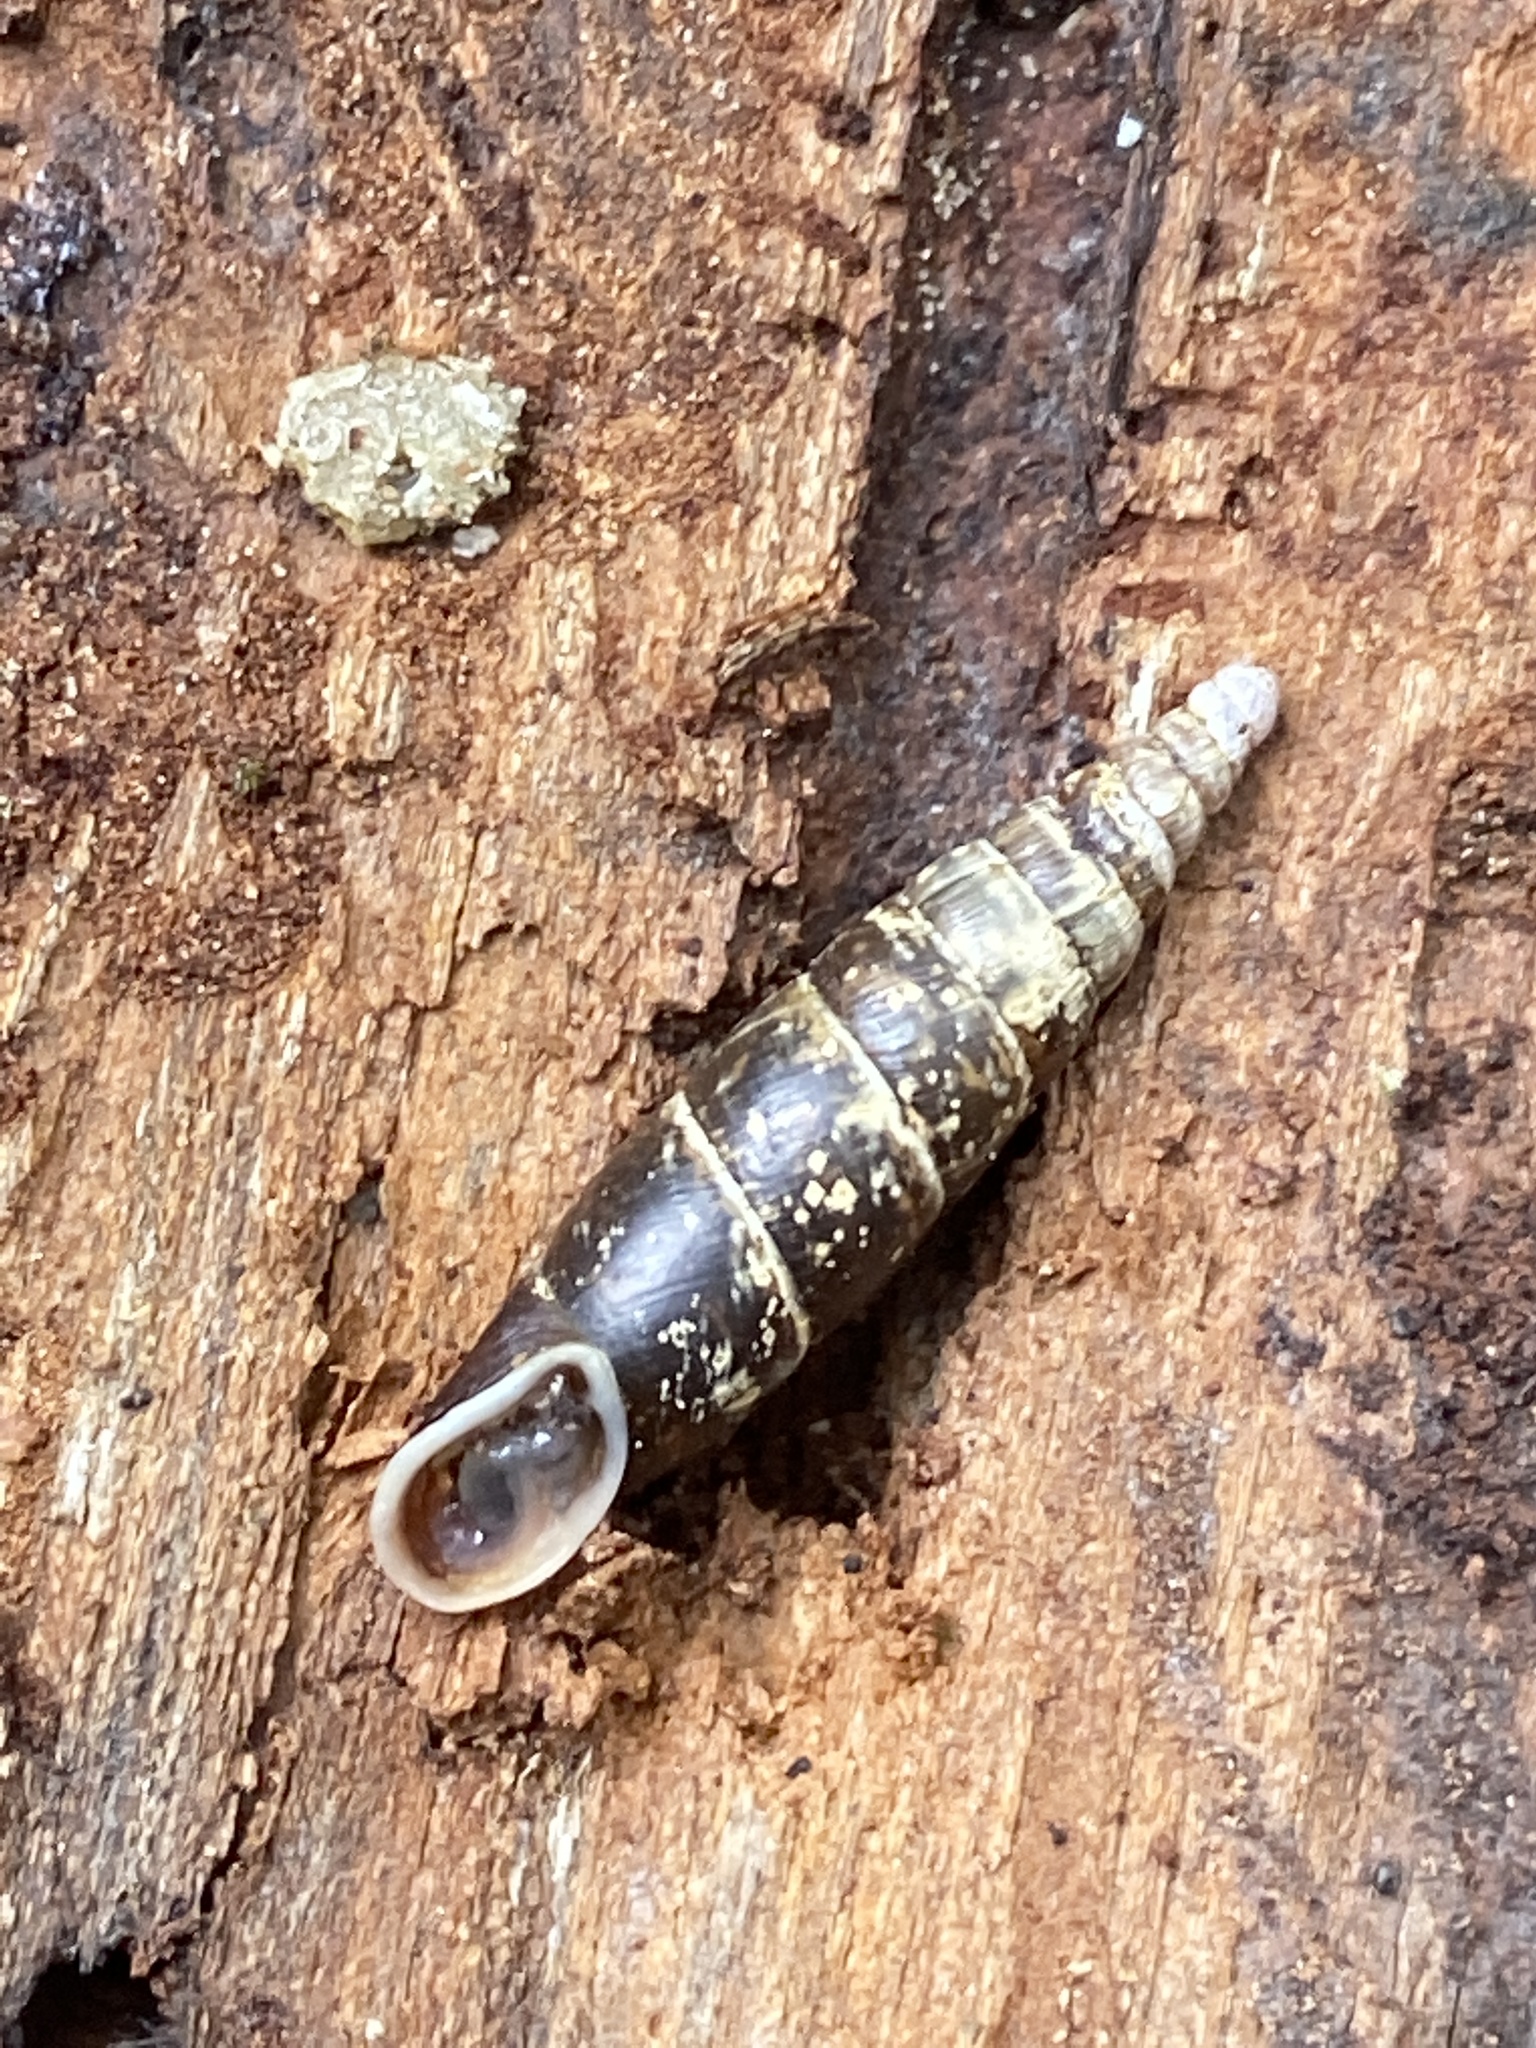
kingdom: Animalia
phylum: Mollusca
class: Gastropoda
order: Stylommatophora
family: Clausiliidae
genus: Cochlodina
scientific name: Cochlodina laminata
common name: Plaited door snail
